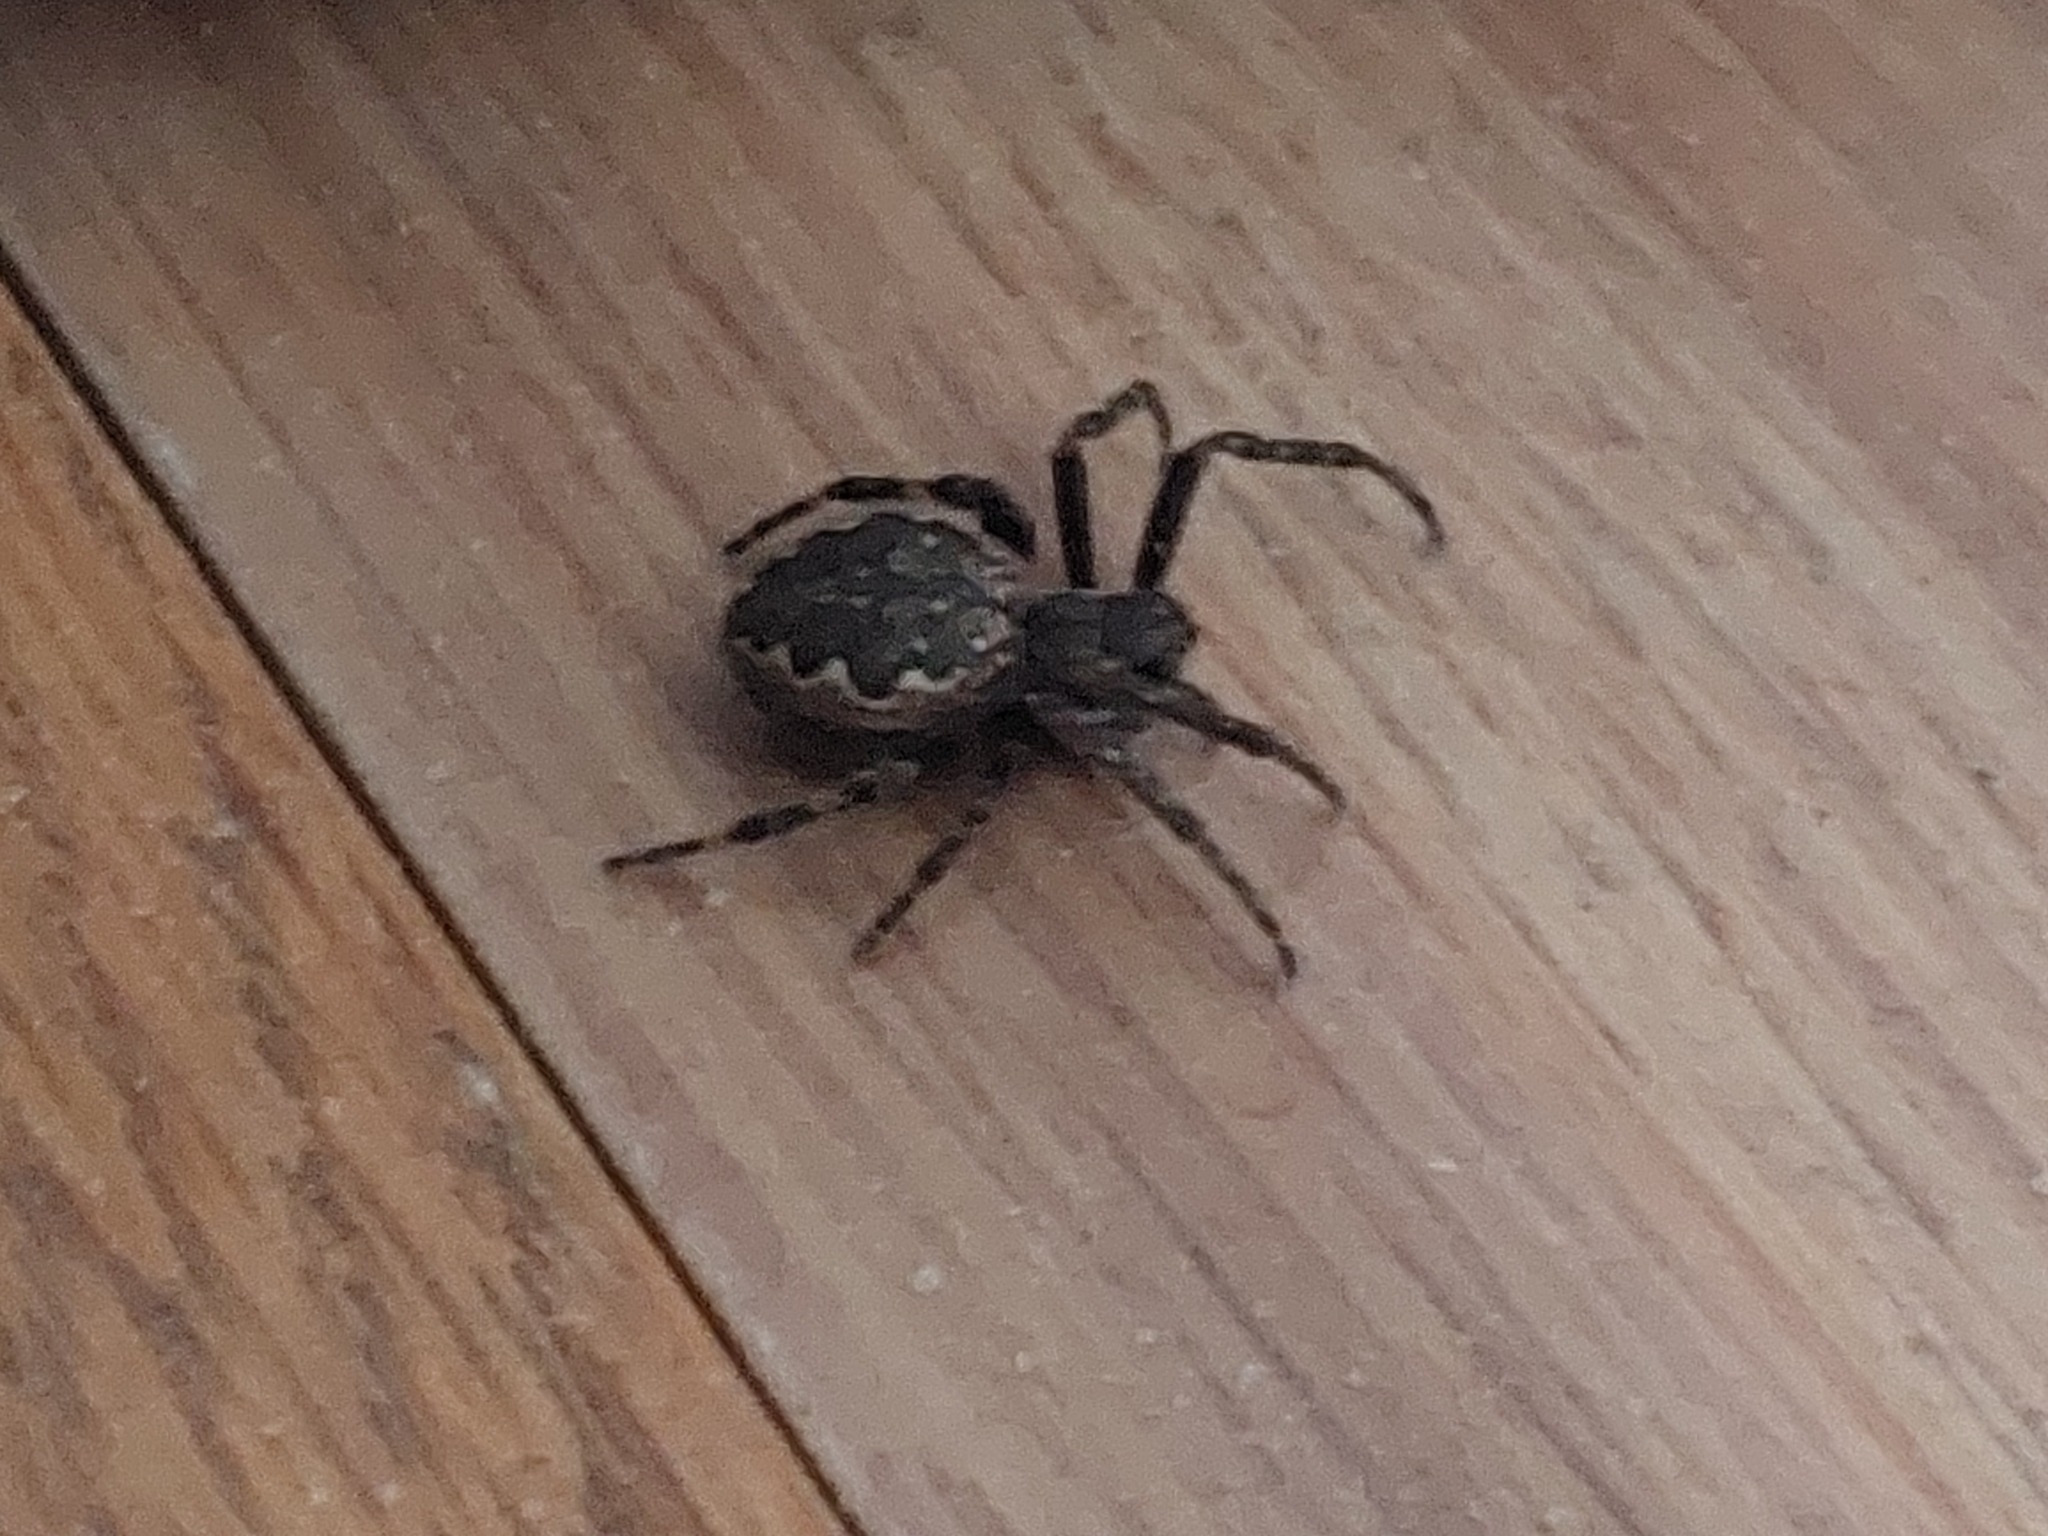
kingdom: Animalia
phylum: Arthropoda
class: Arachnida
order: Araneae
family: Araneidae
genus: Nuctenea
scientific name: Nuctenea umbratica
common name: Toad spider
